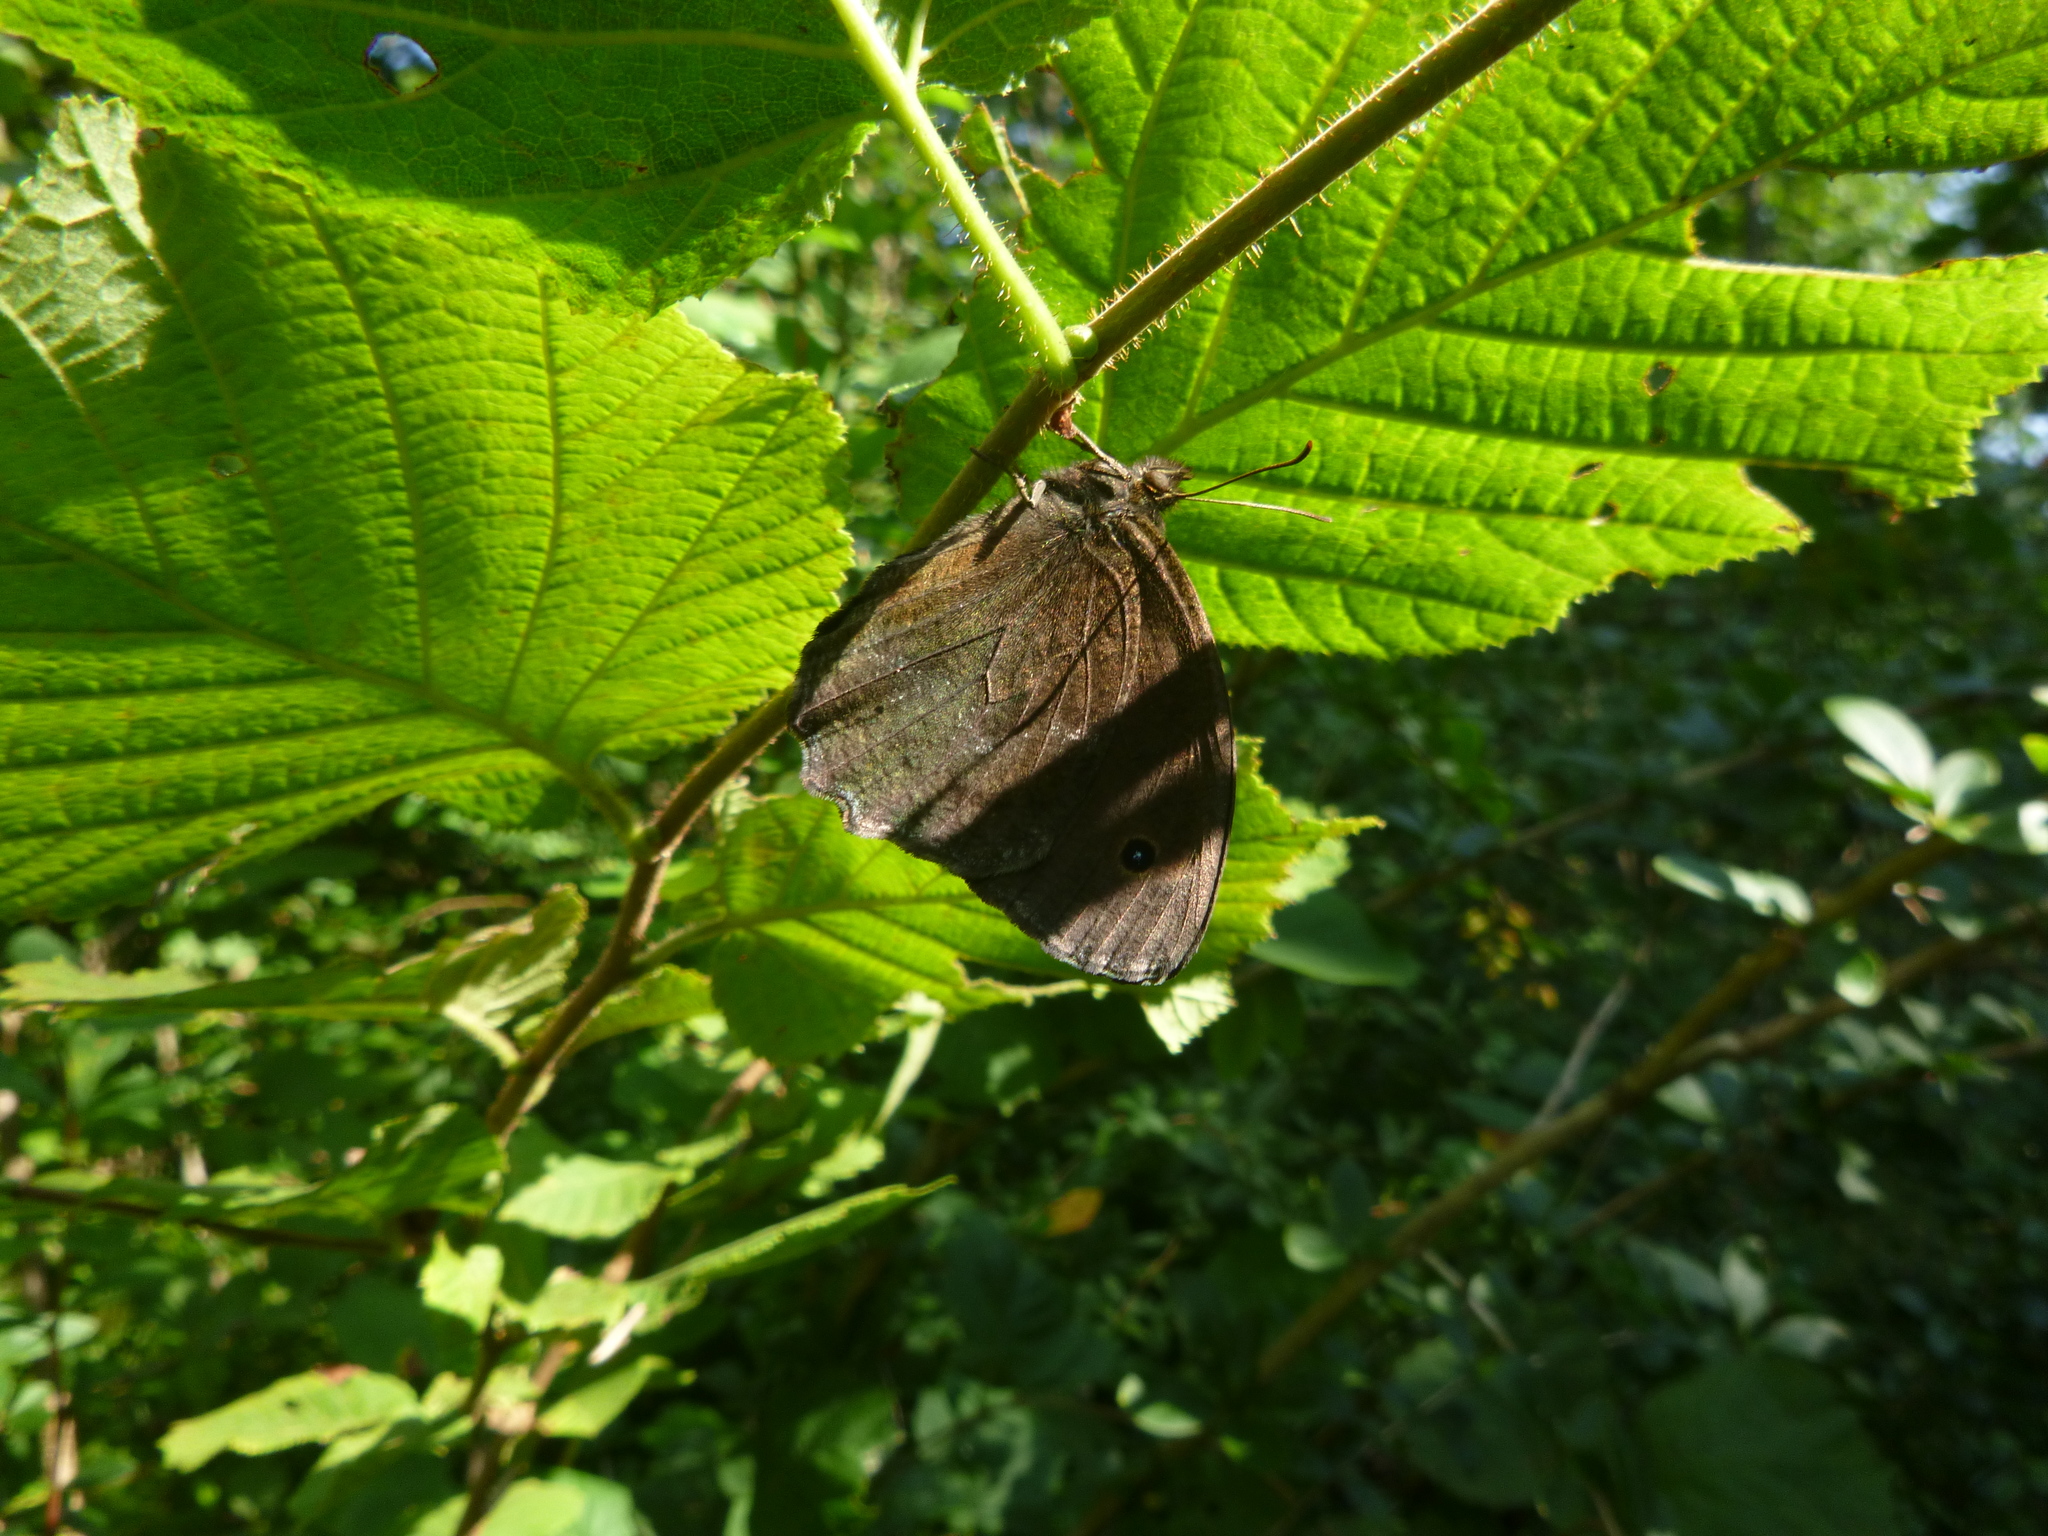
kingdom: Animalia
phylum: Arthropoda
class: Insecta
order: Lepidoptera
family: Nymphalidae
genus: Minois
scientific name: Minois dryas
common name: Dryad
